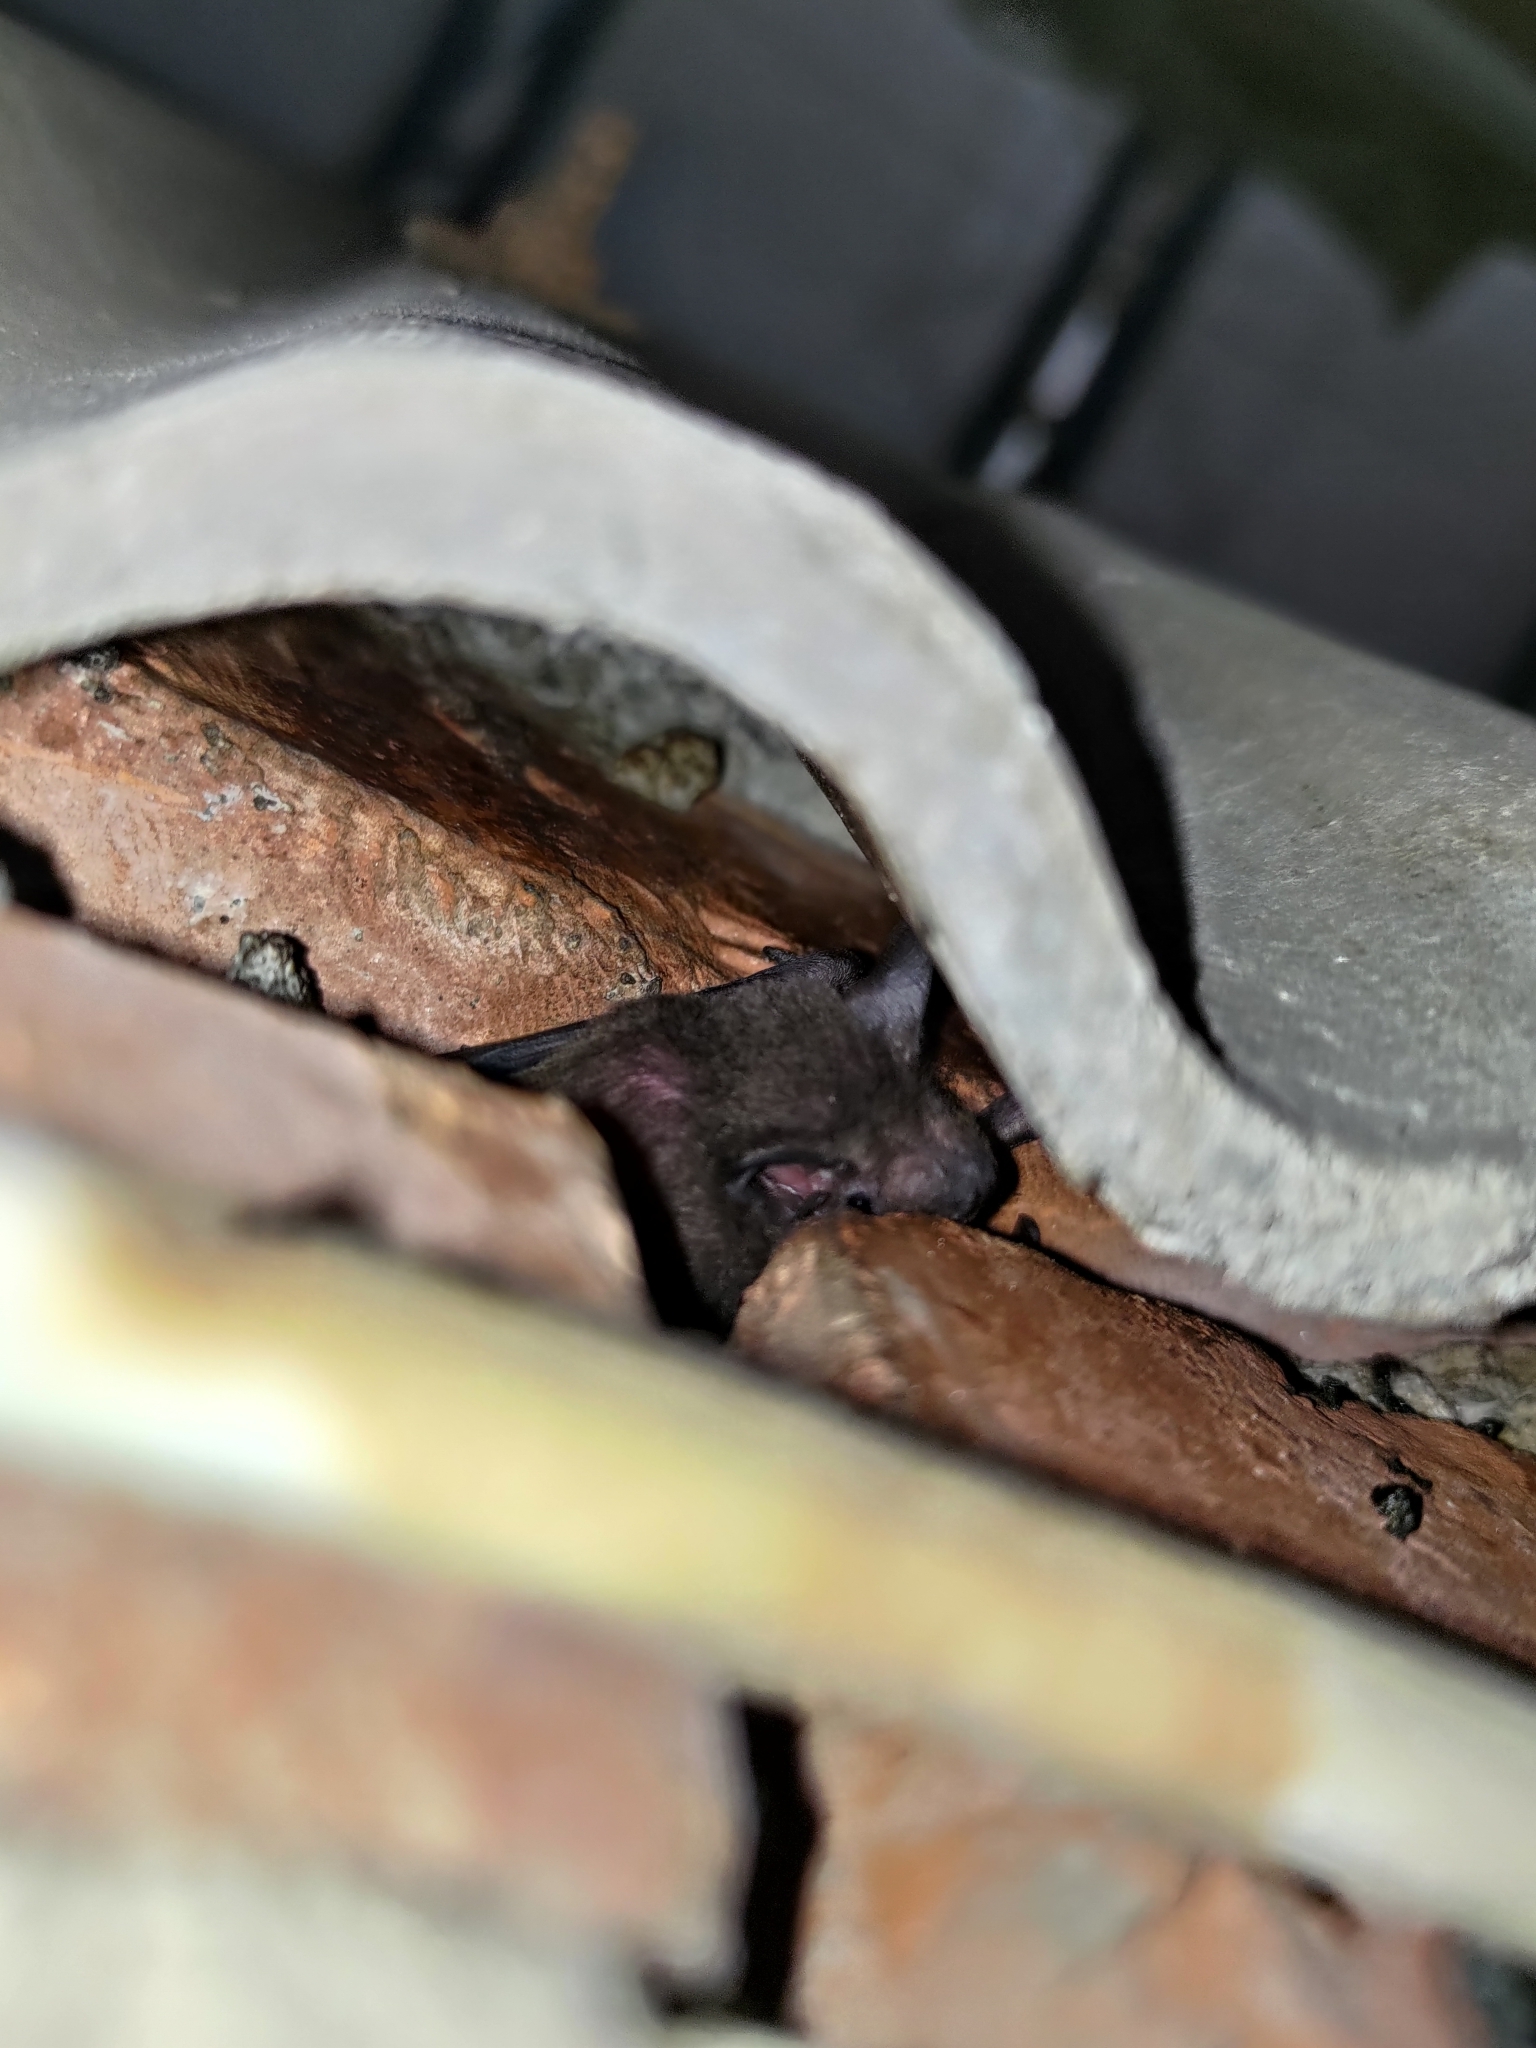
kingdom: Animalia
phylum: Chordata
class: Mammalia
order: Chiroptera
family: Vespertilionidae
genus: Pipistrellus
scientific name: Pipistrellus abramus
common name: Japanese pipistrelle
